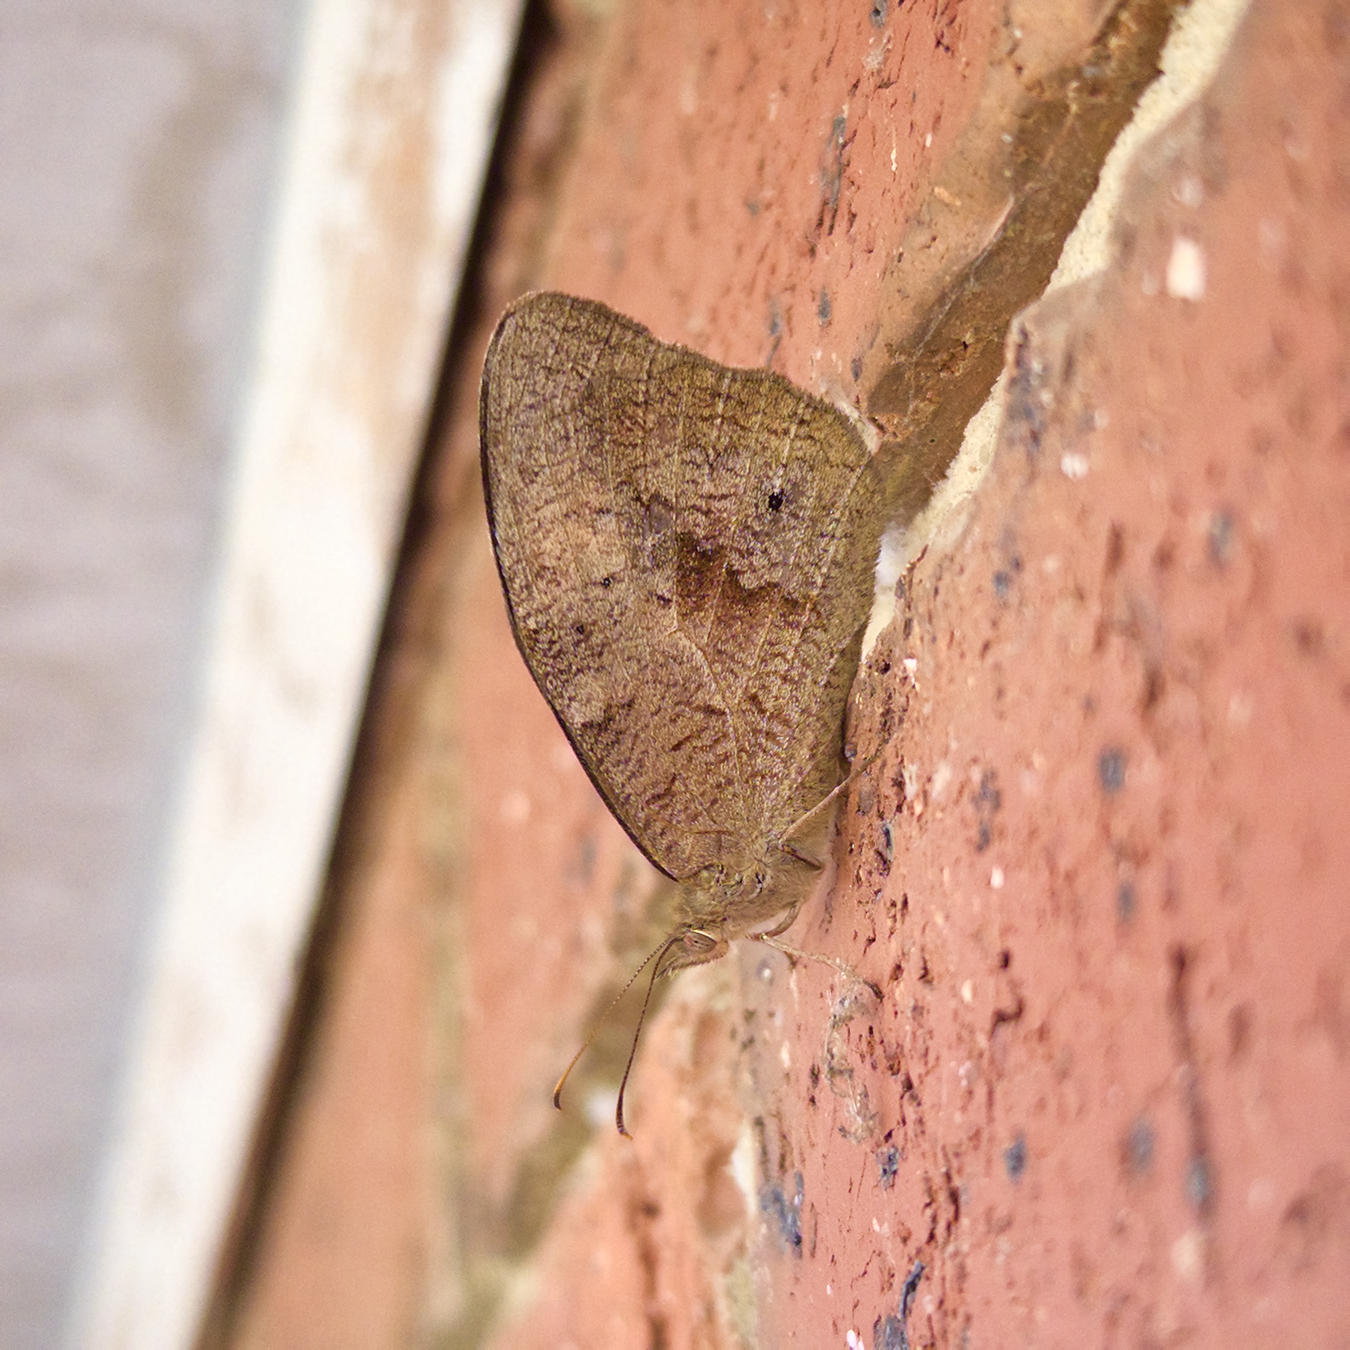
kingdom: Animalia
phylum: Arthropoda
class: Insecta
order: Lepidoptera
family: Nymphalidae
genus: Heteronympha
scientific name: Heteronympha merope
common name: Common brown
